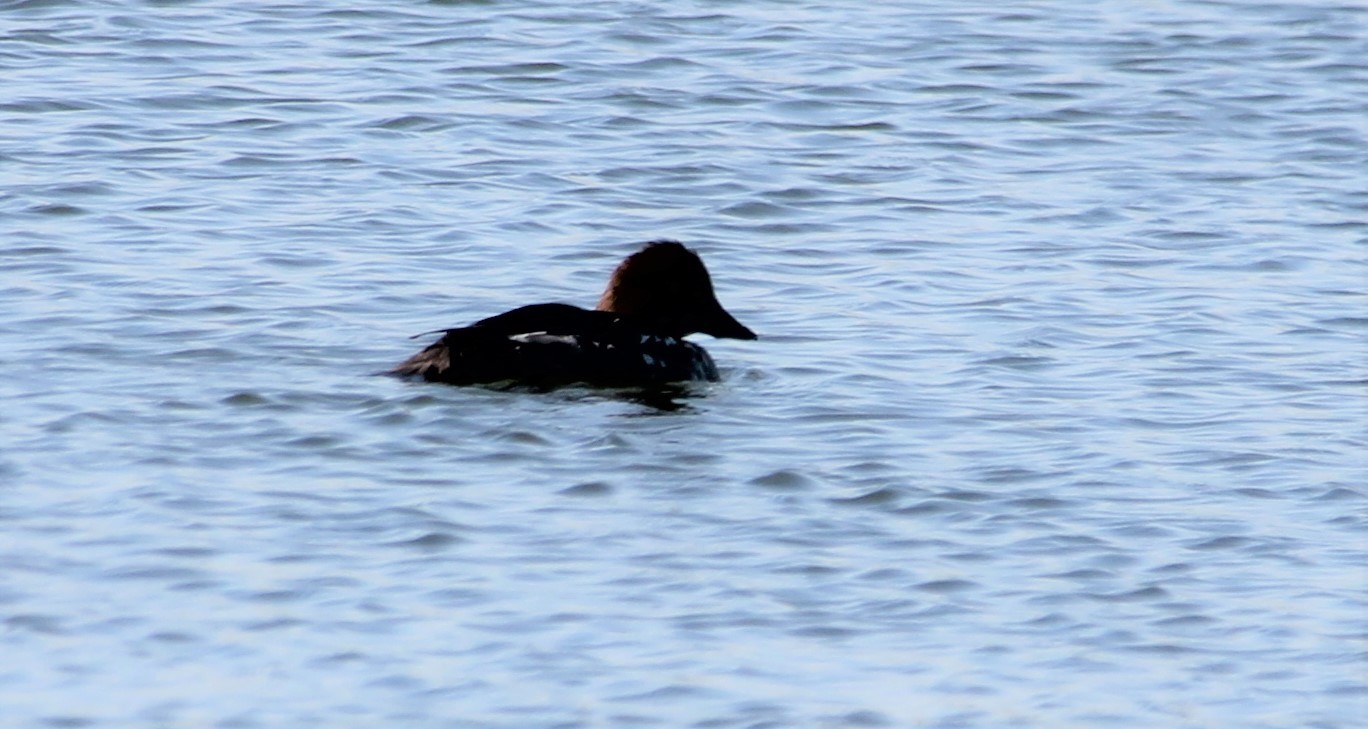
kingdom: Animalia
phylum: Chordata
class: Aves
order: Anseriformes
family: Anatidae
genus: Bucephala
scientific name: Bucephala clangula
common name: Common goldeneye
